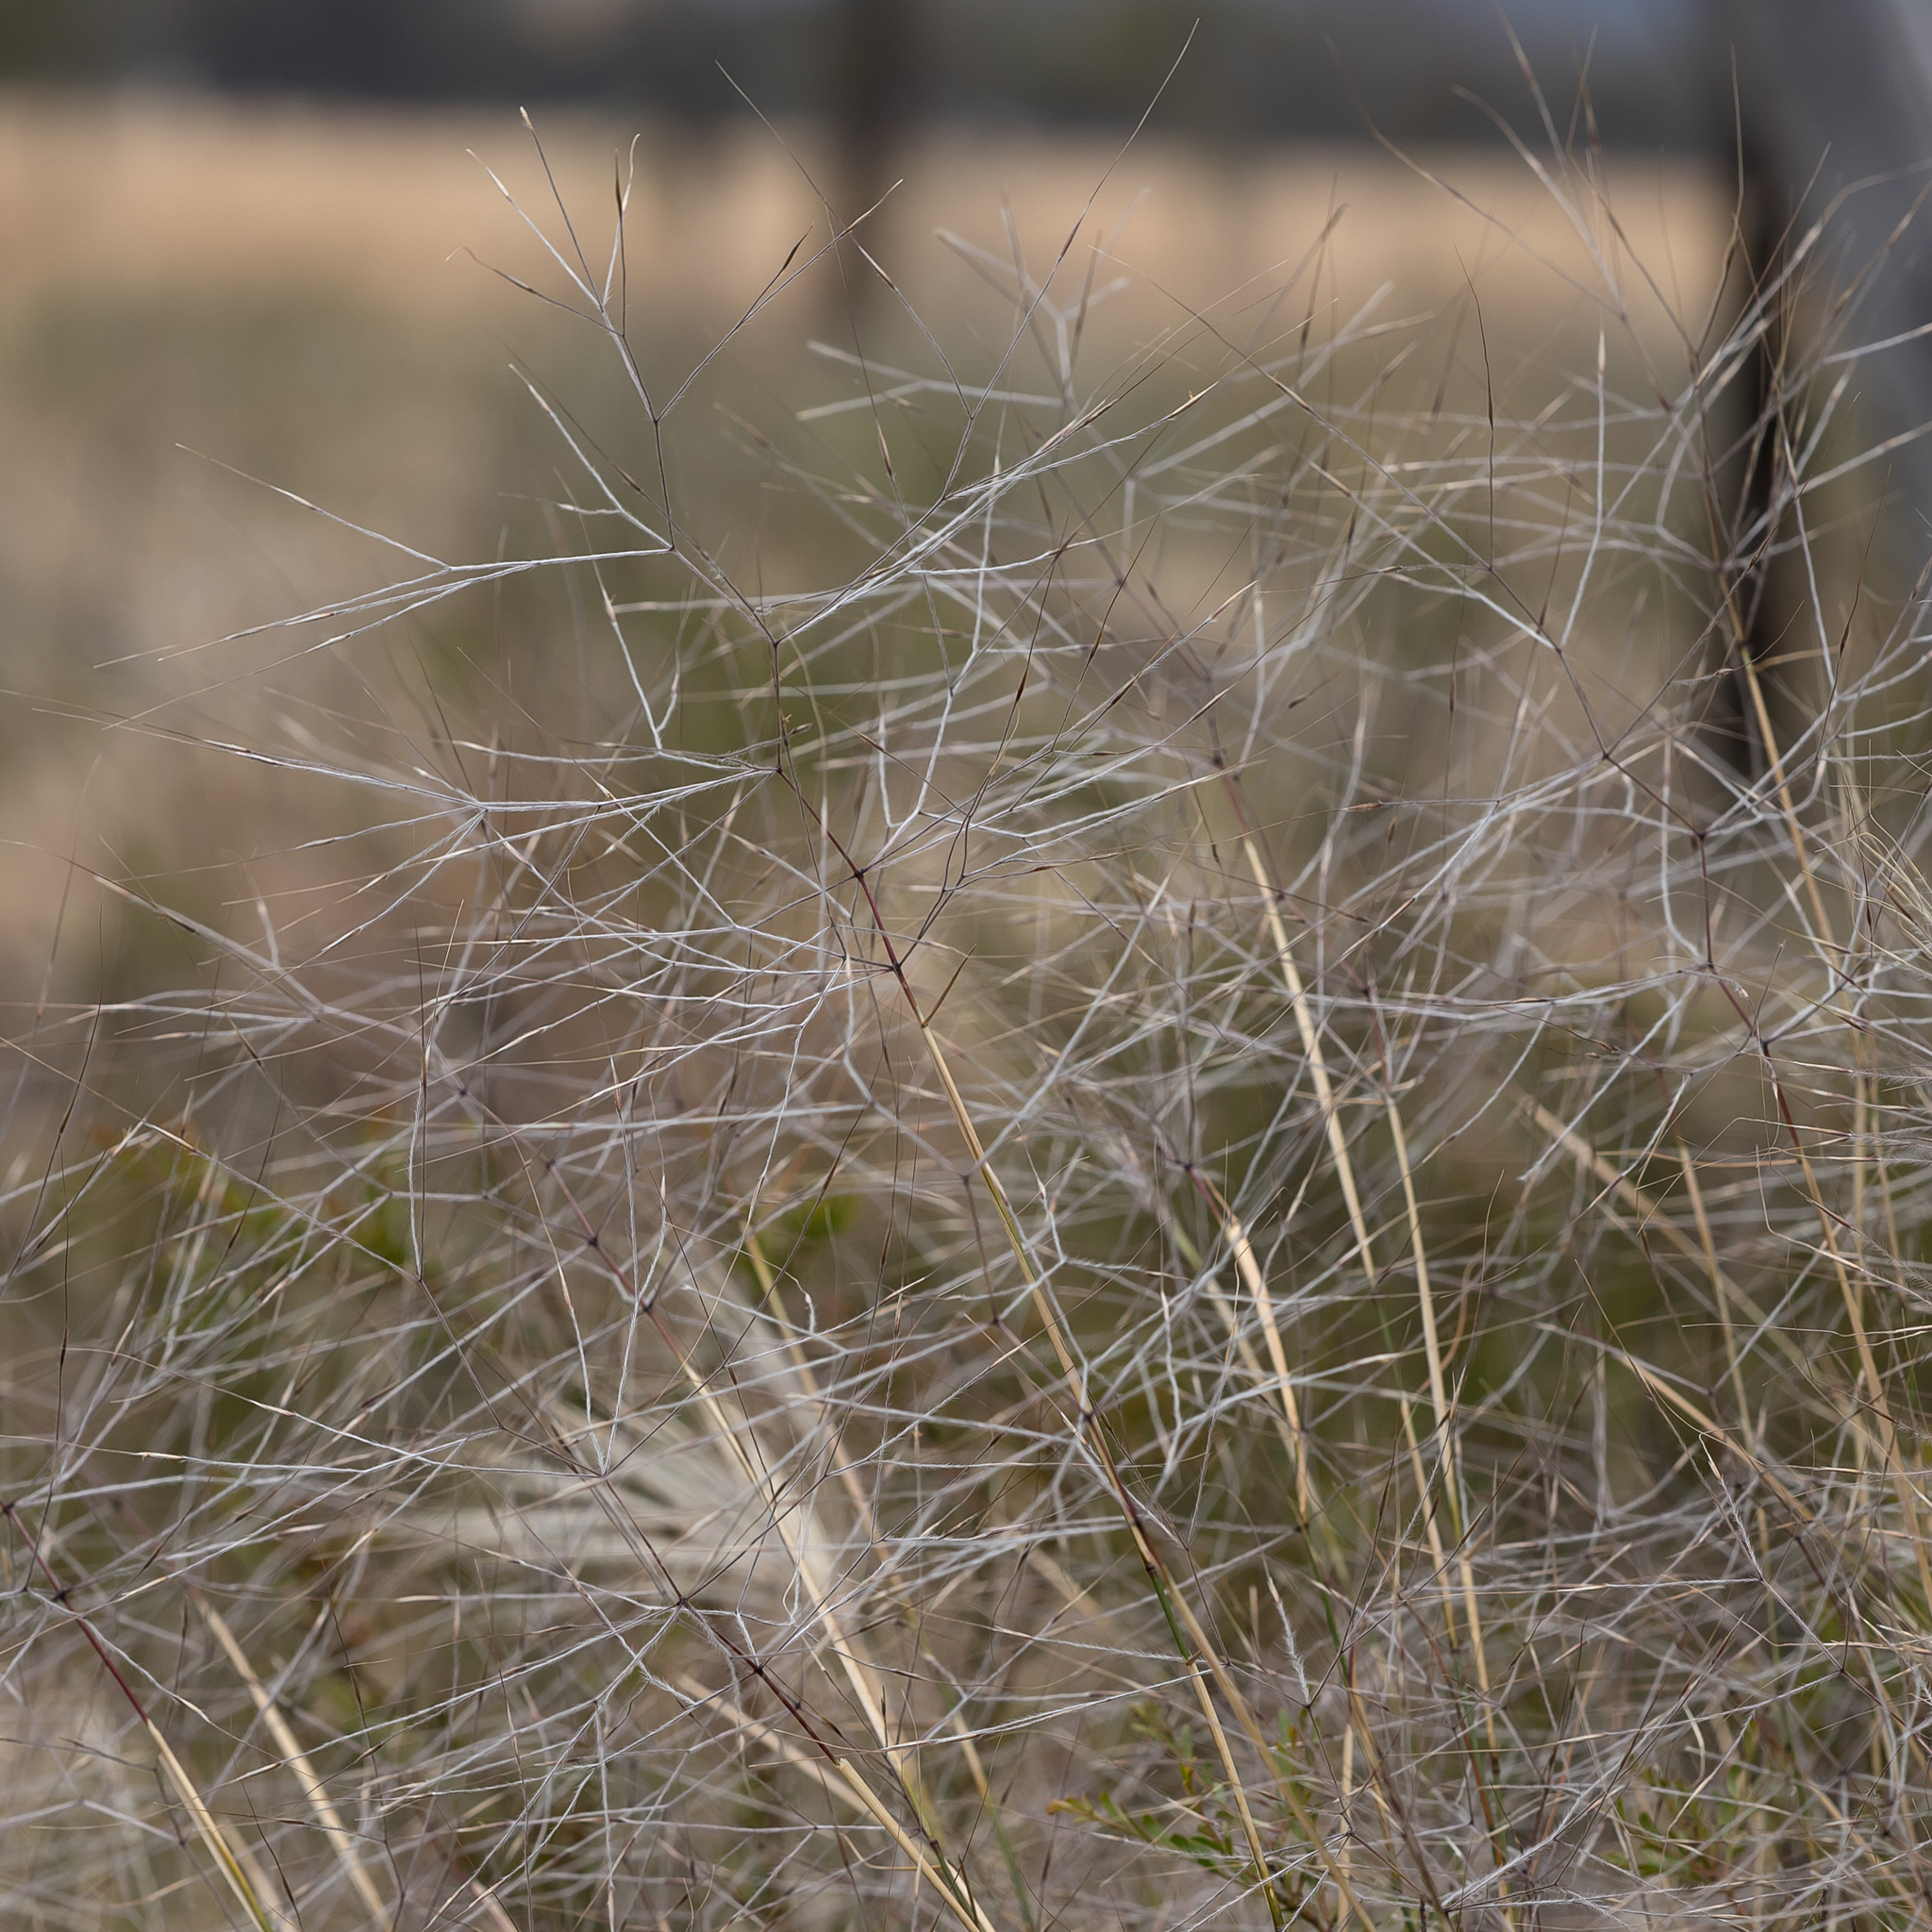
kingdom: Plantae
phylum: Tracheophyta
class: Liliopsida
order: Poales
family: Poaceae
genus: Austrostipa
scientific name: Austrostipa elegantissima
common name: Feather spear grass
